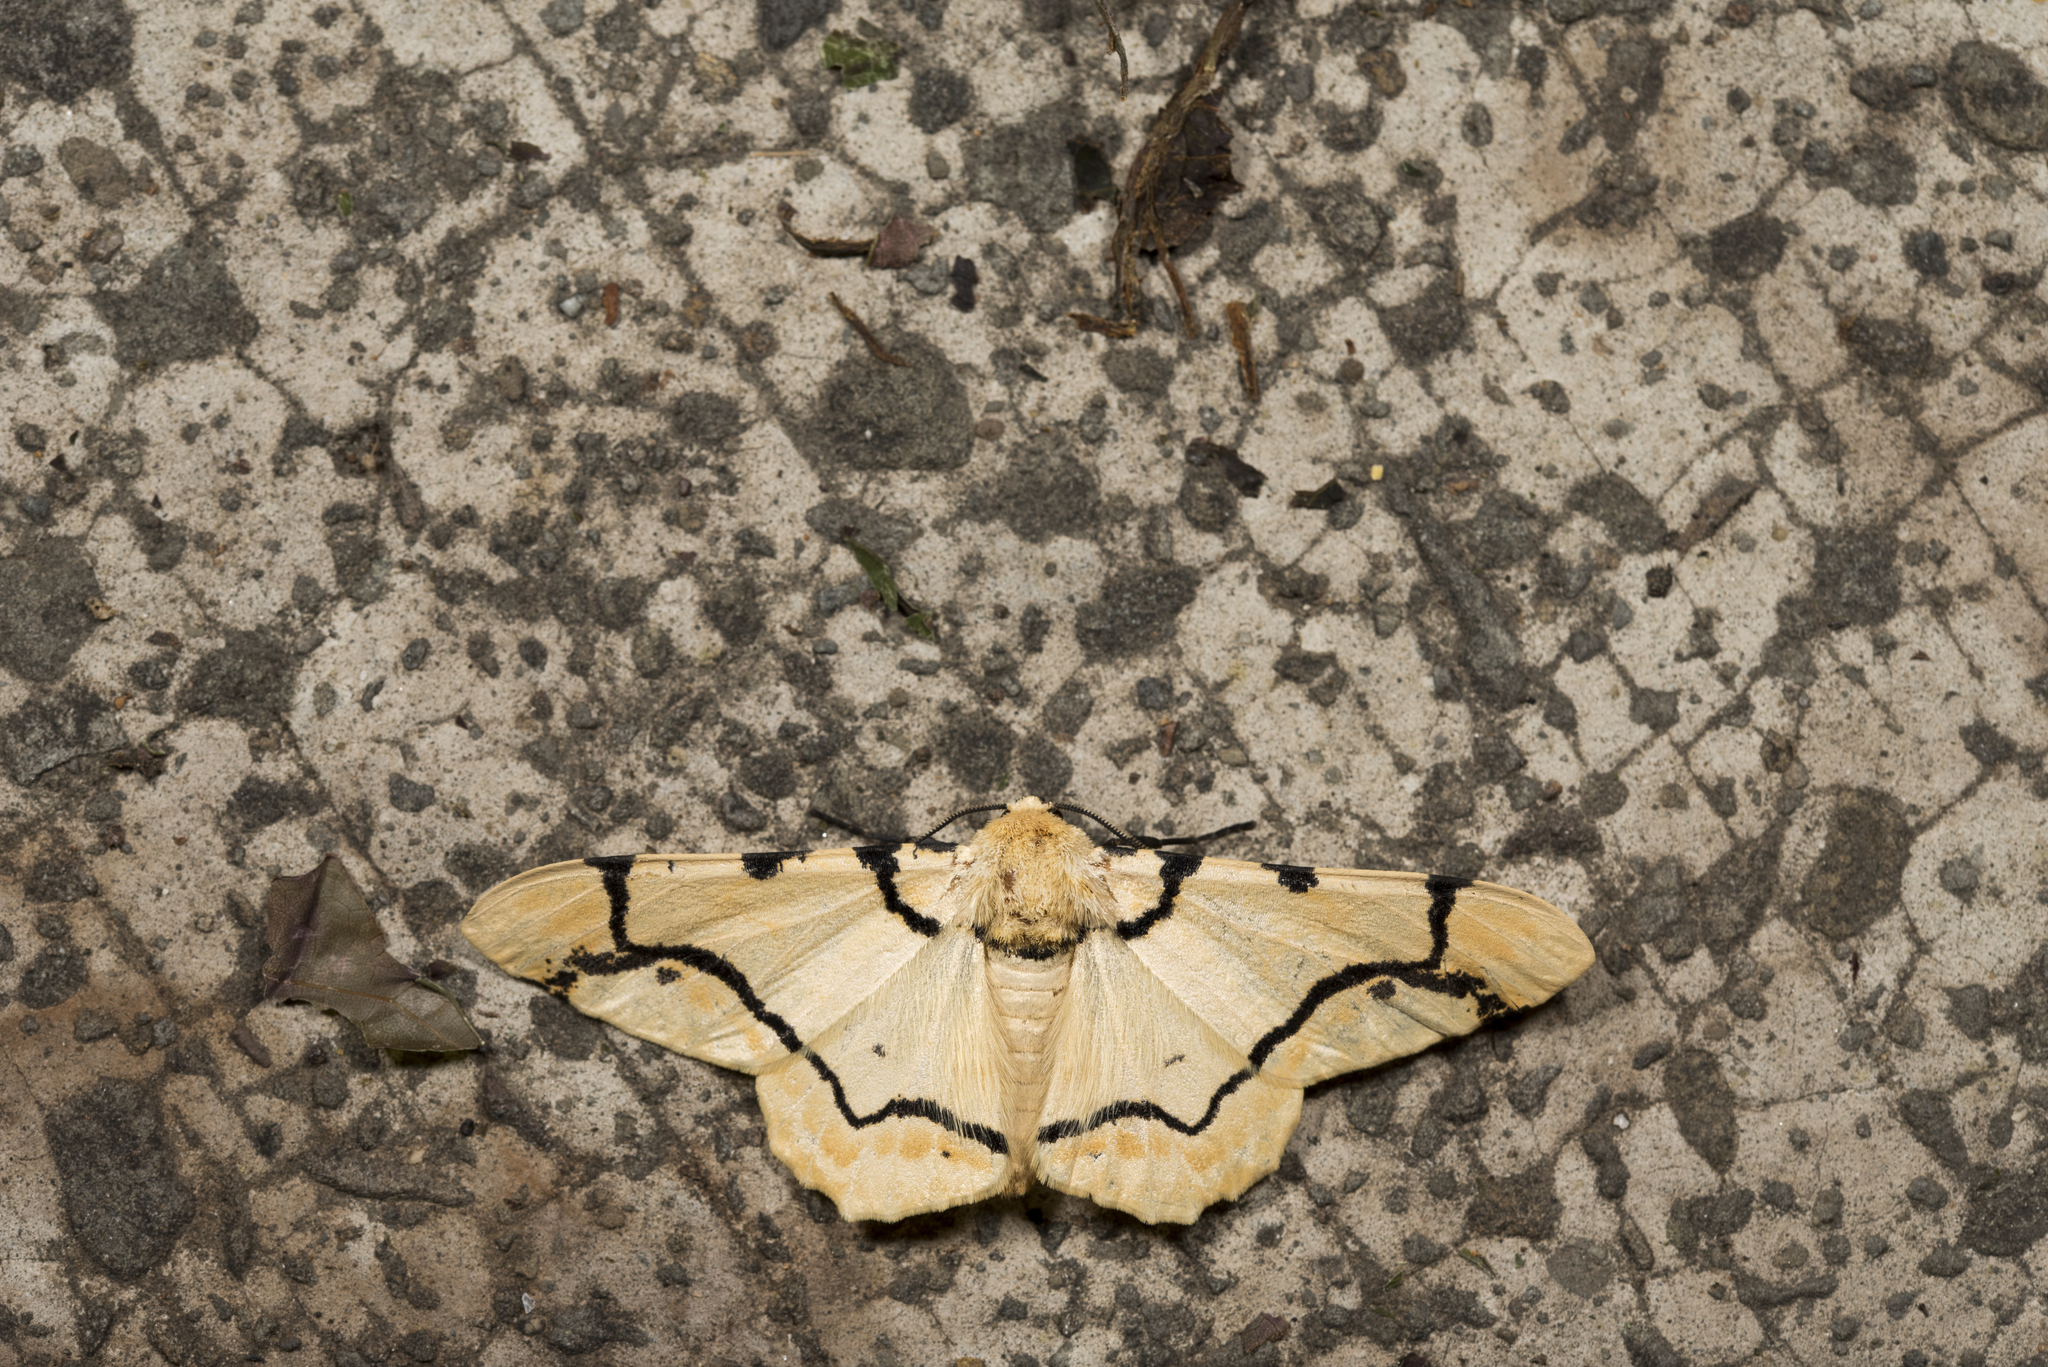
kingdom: Animalia
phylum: Arthropoda
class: Insecta
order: Lepidoptera
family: Geometridae
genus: Biston
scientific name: Biston perclara
